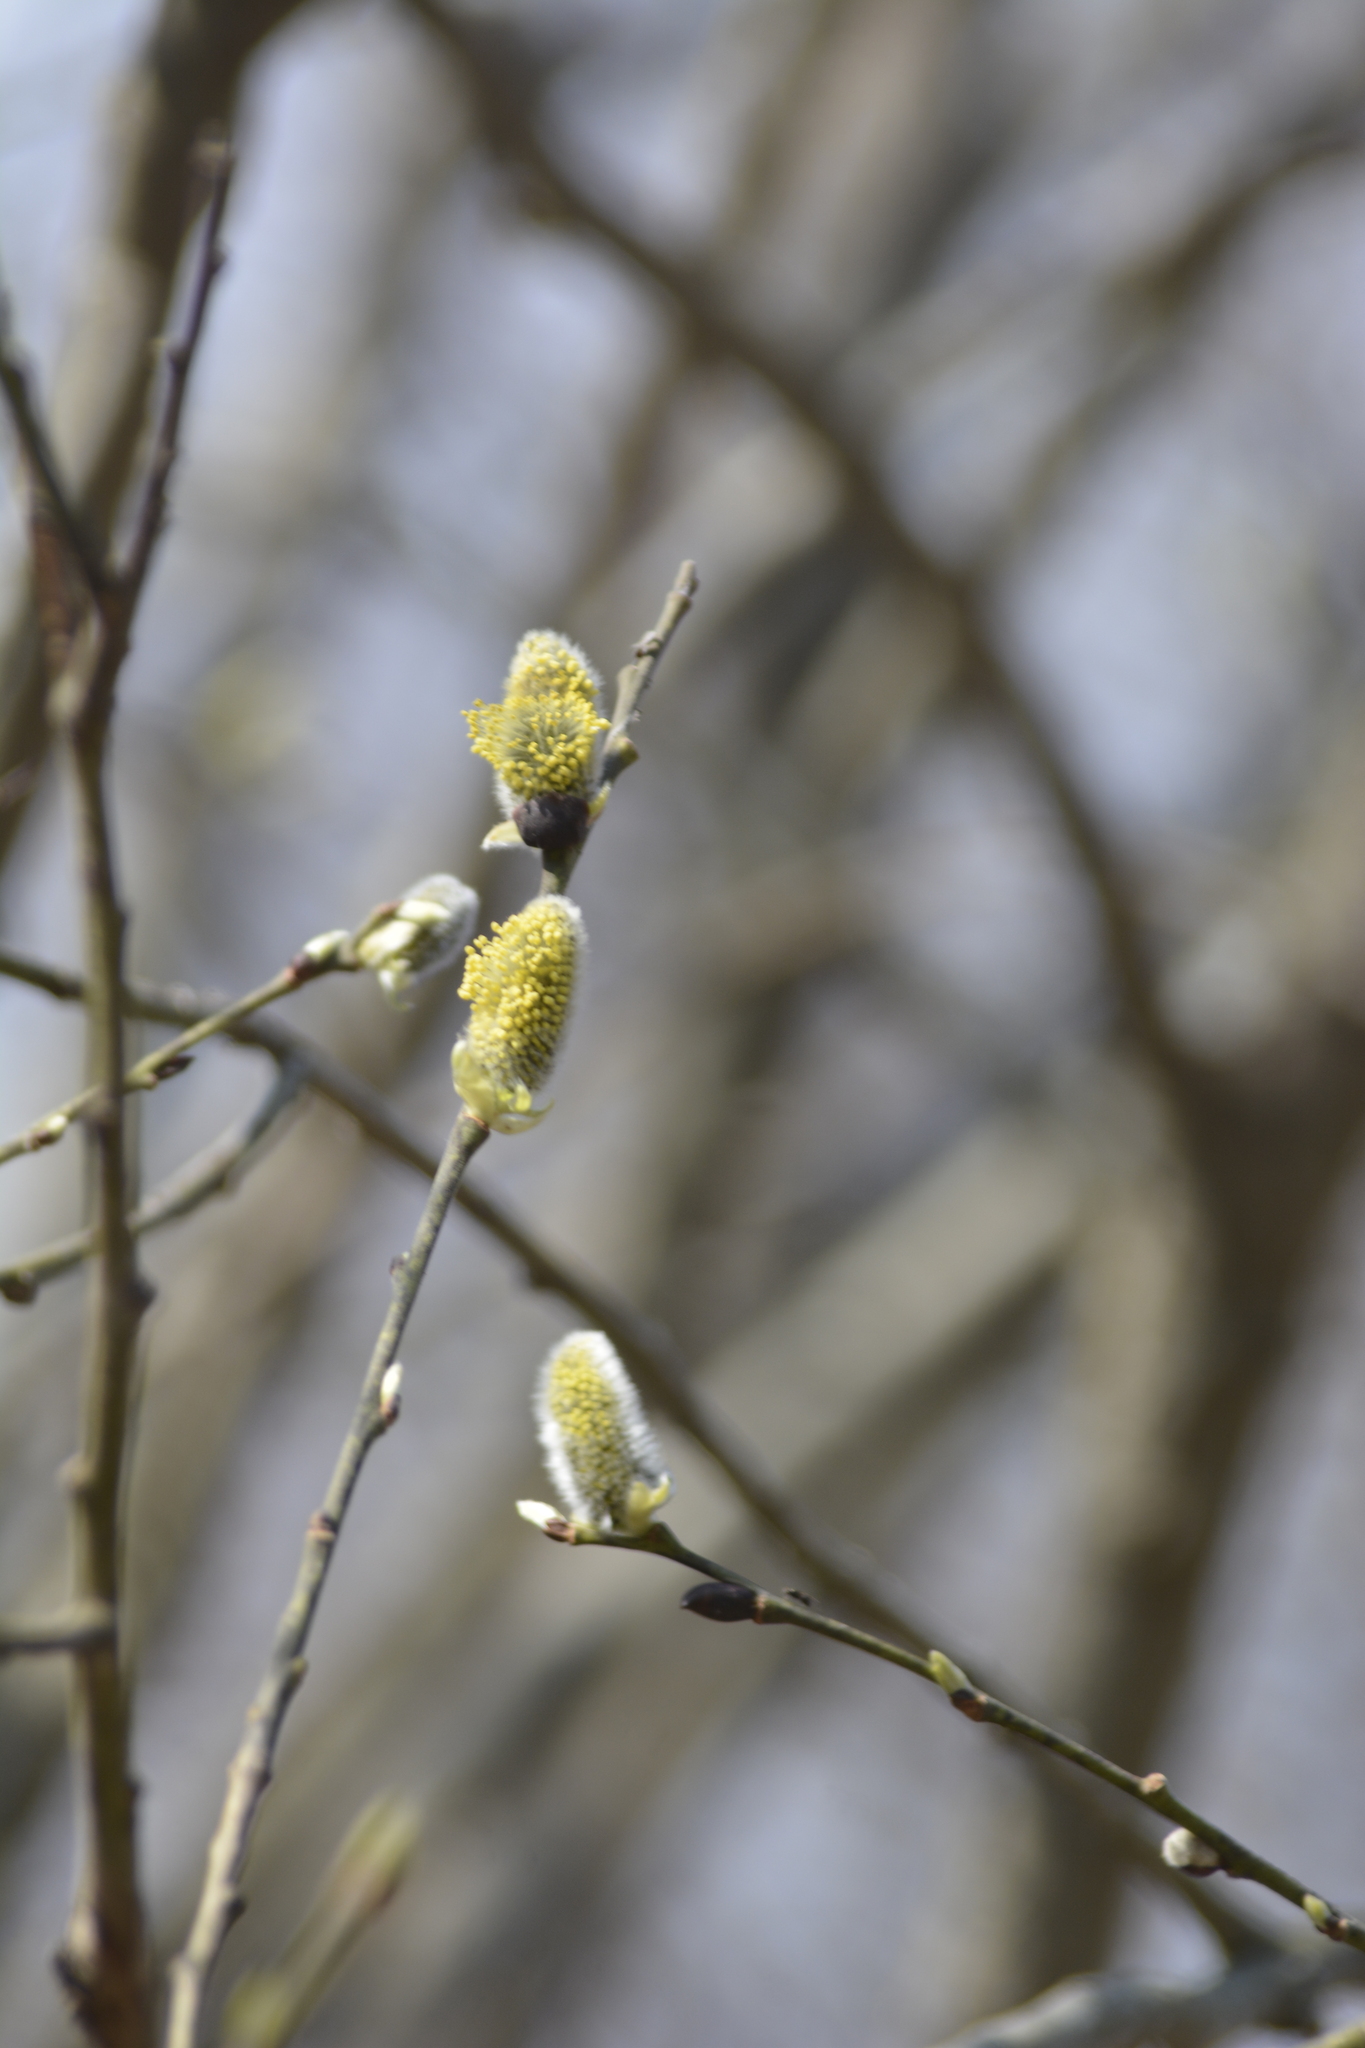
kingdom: Plantae
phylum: Tracheophyta
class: Magnoliopsida
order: Malpighiales
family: Salicaceae
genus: Salix
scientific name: Salix caprea
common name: Goat willow
